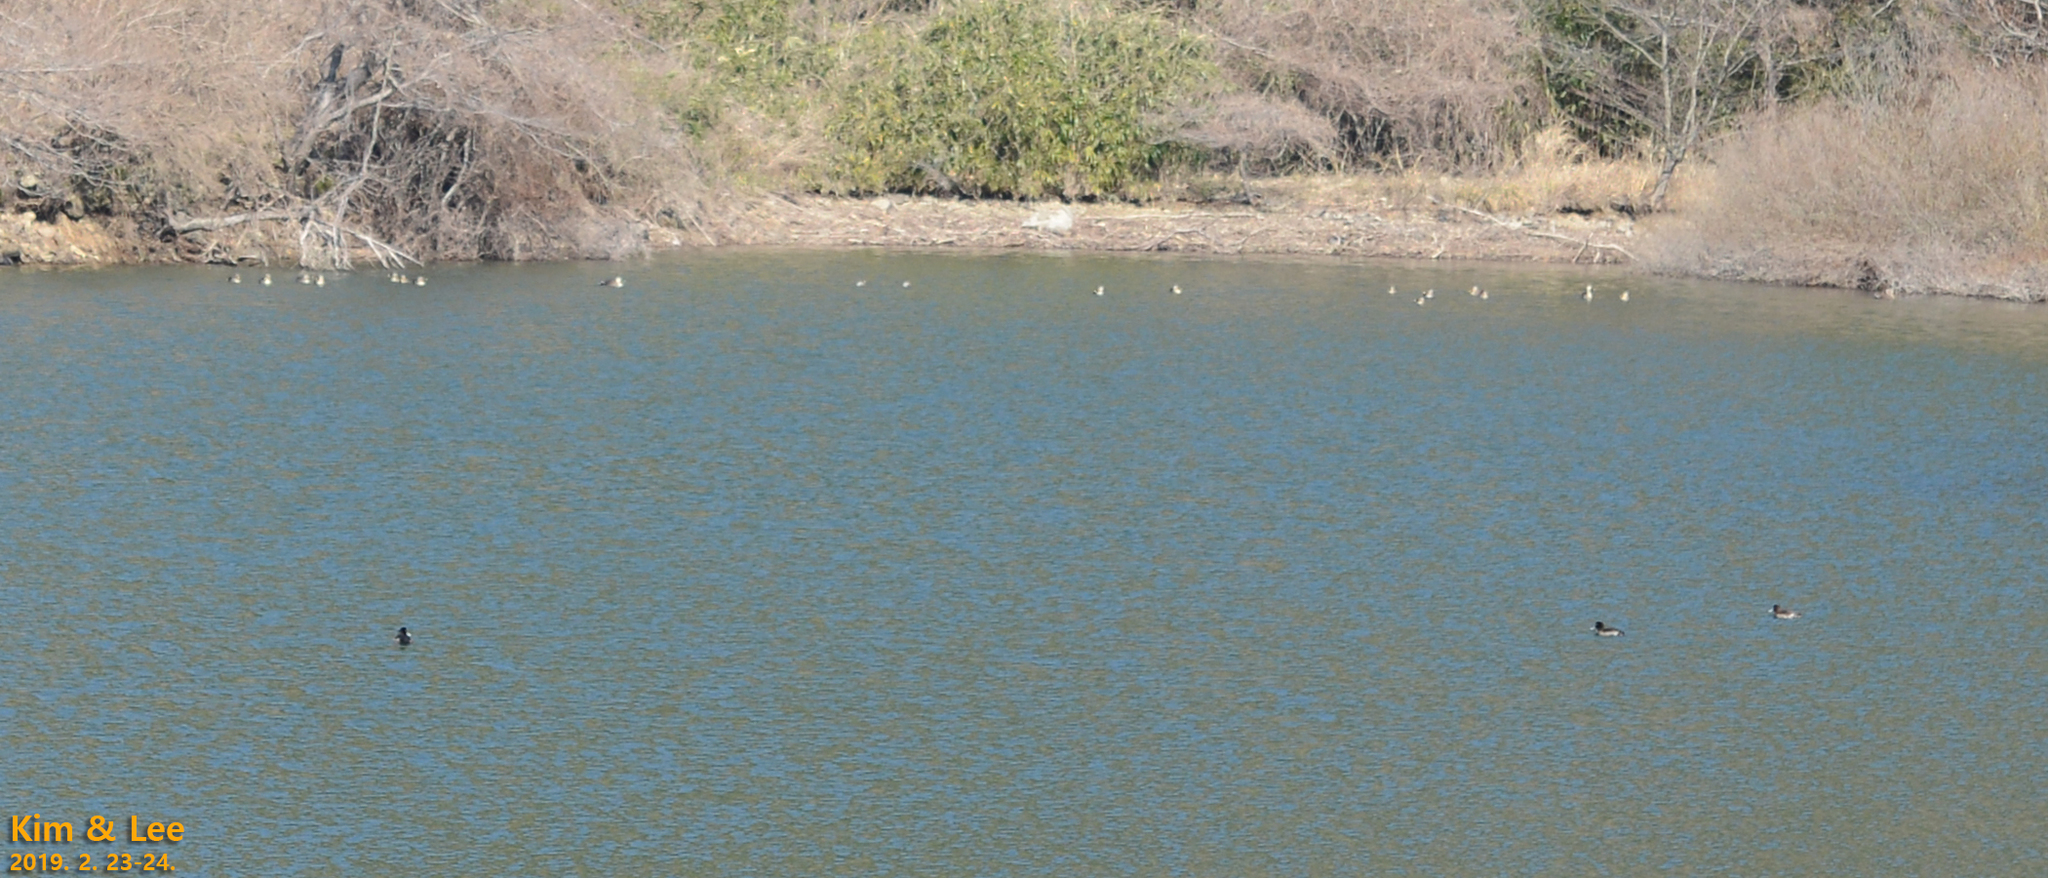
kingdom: Animalia
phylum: Chordata
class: Aves
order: Anseriformes
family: Anatidae
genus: Aythya
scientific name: Aythya marila
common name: Greater scaup
